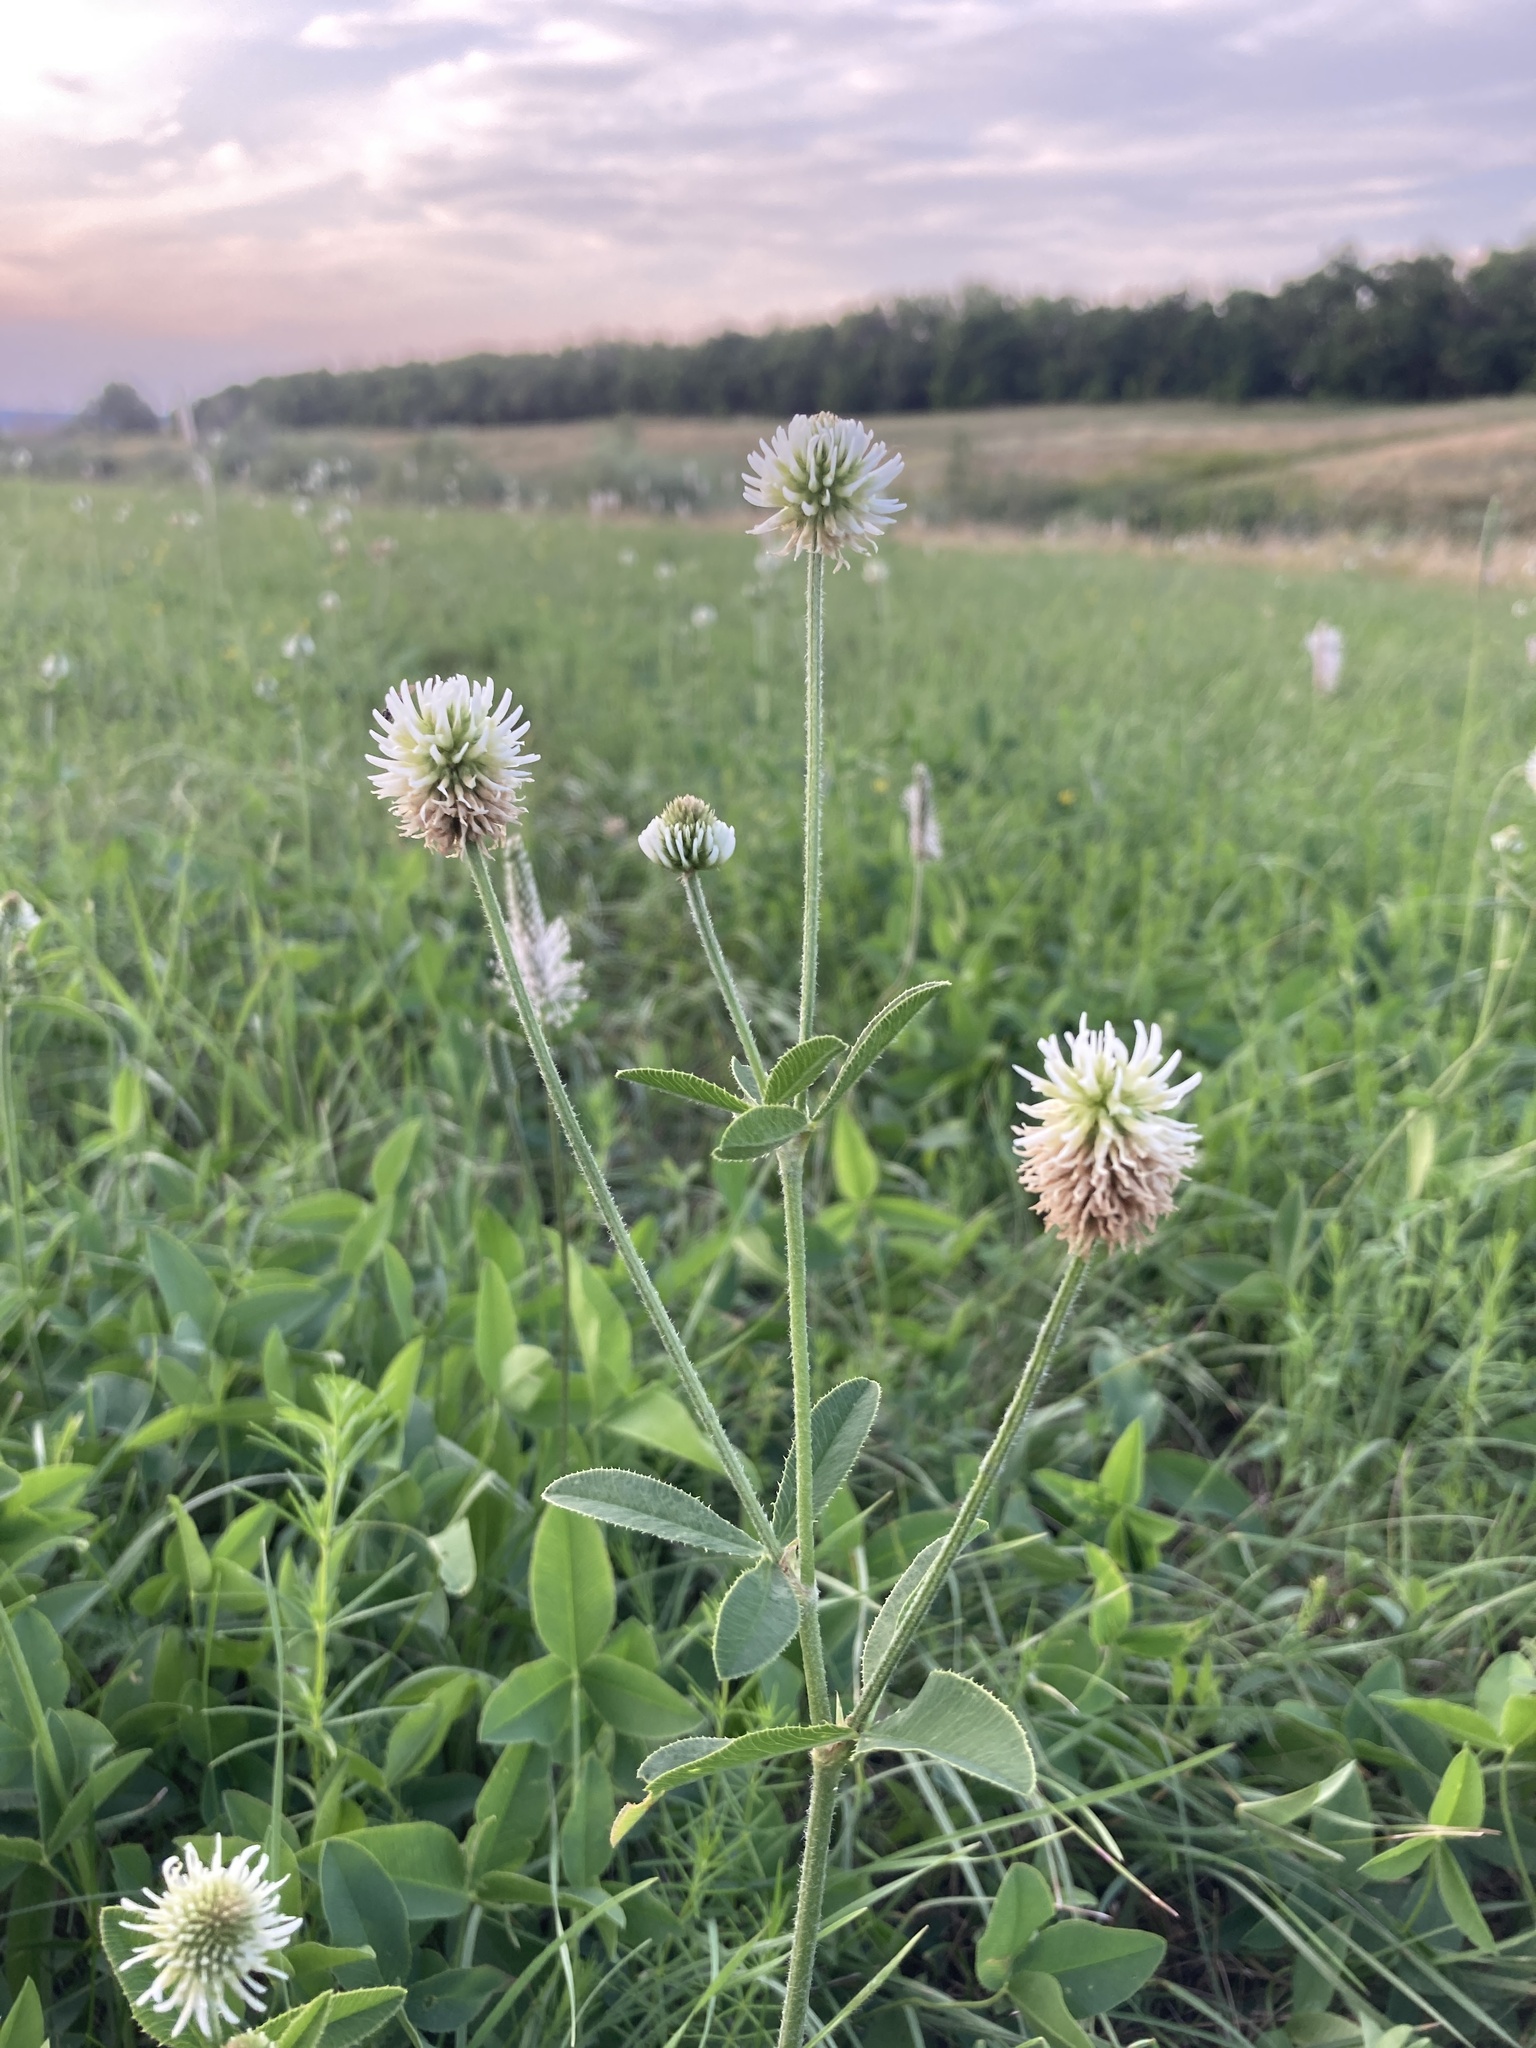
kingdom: Plantae
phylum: Tracheophyta
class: Magnoliopsida
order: Fabales
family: Fabaceae
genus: Trifolium
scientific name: Trifolium montanum
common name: Mountain clover
